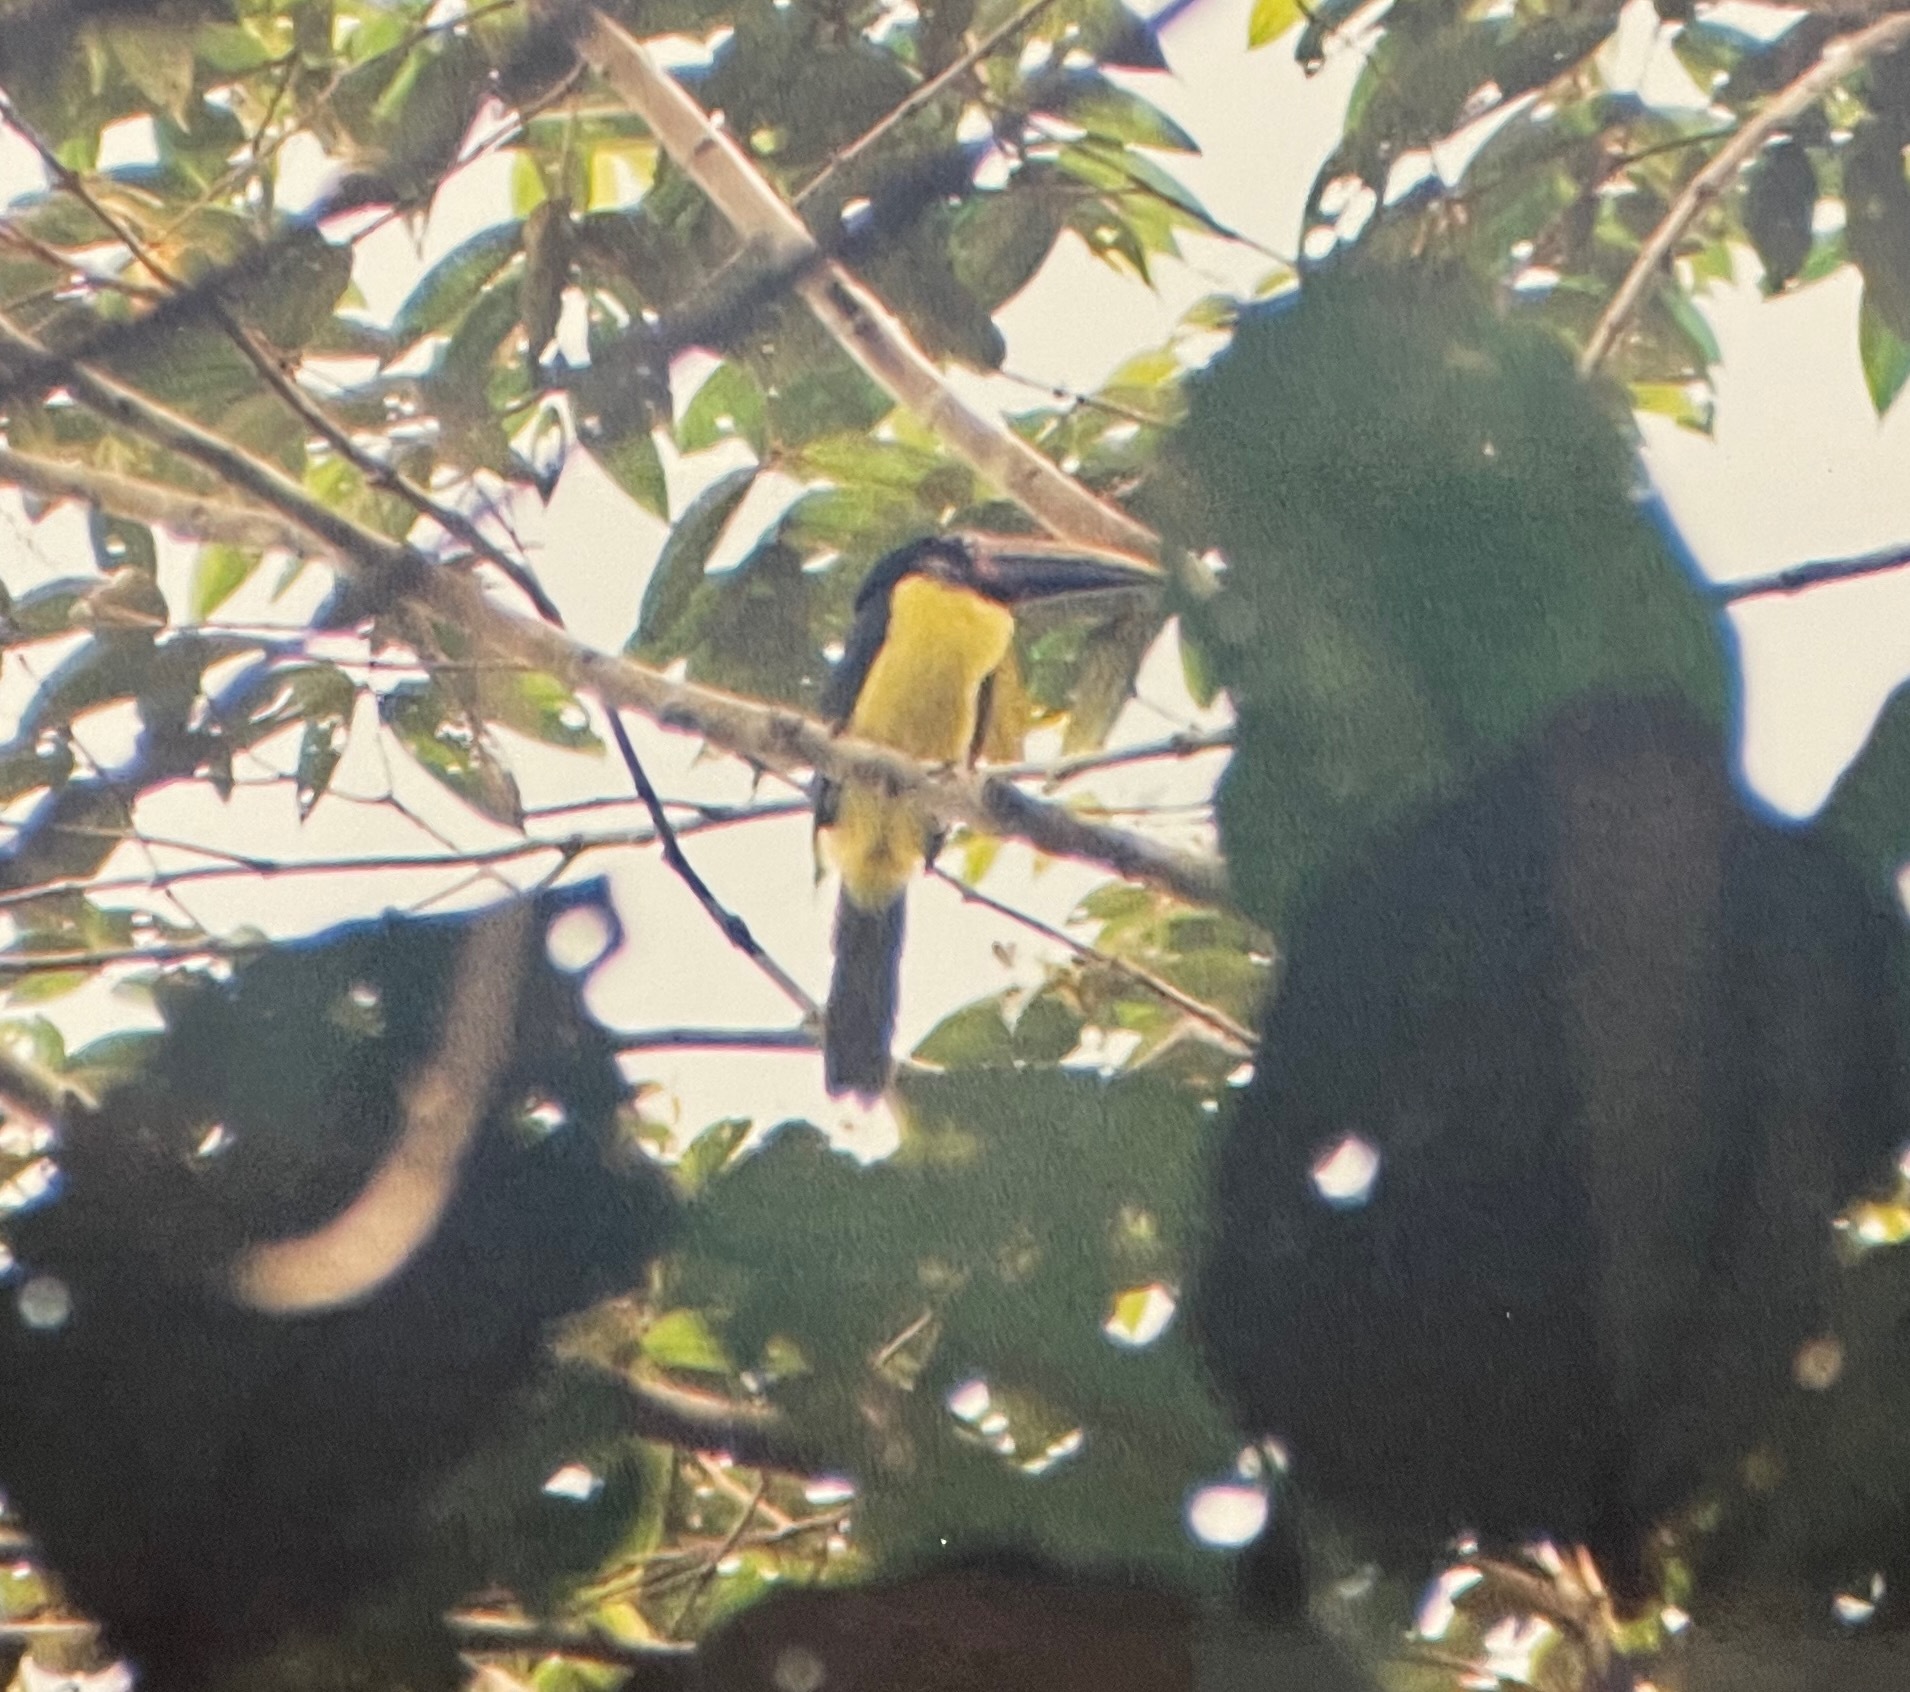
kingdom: Animalia
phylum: Chordata
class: Aves
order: Piciformes
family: Ramphastidae
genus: Pteroglossus
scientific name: Pteroglossus viridis
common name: Green aracari
